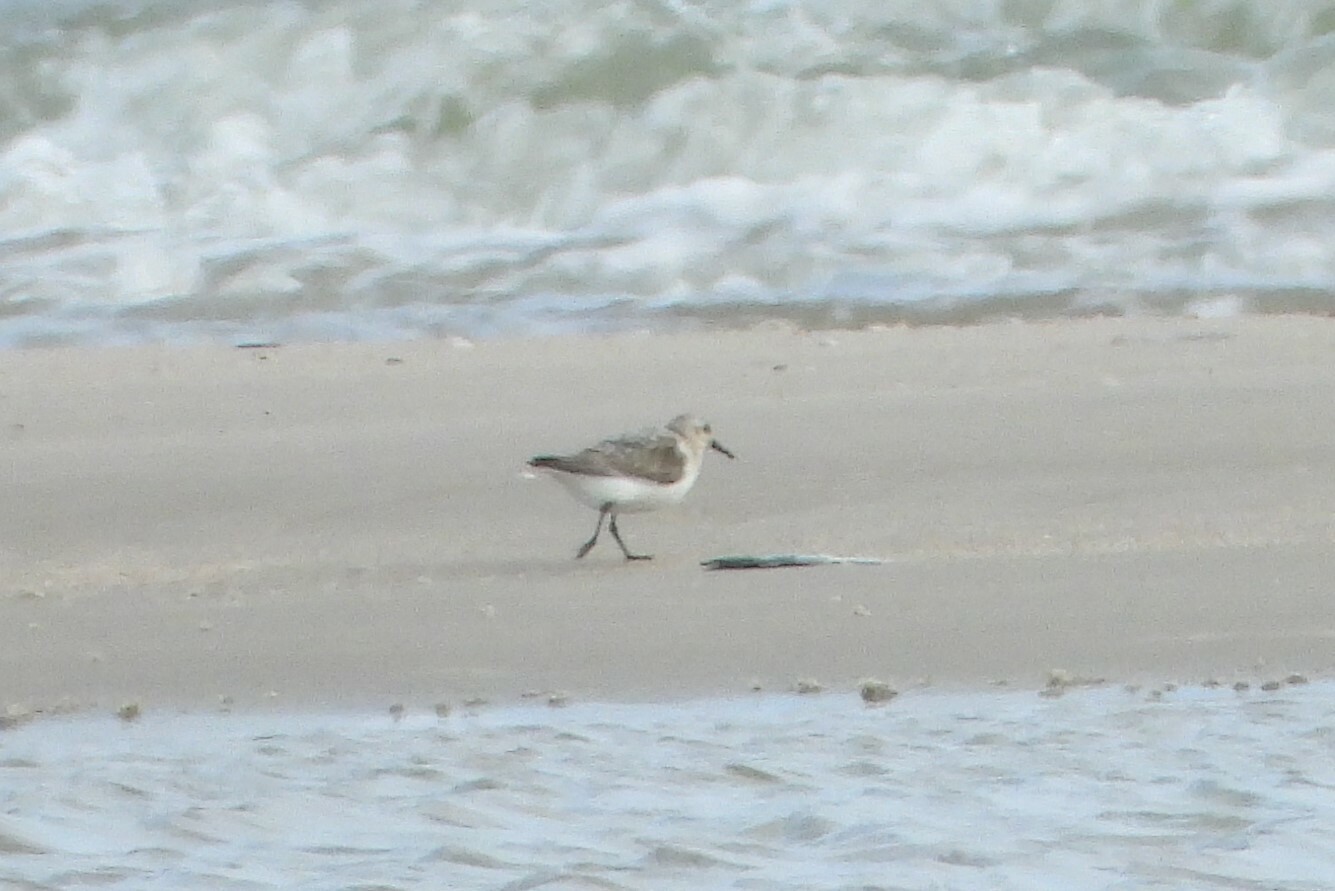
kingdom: Animalia
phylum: Chordata
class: Aves
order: Charadriiformes
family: Scolopacidae
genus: Calidris
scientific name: Calidris alba
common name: Sanderling
